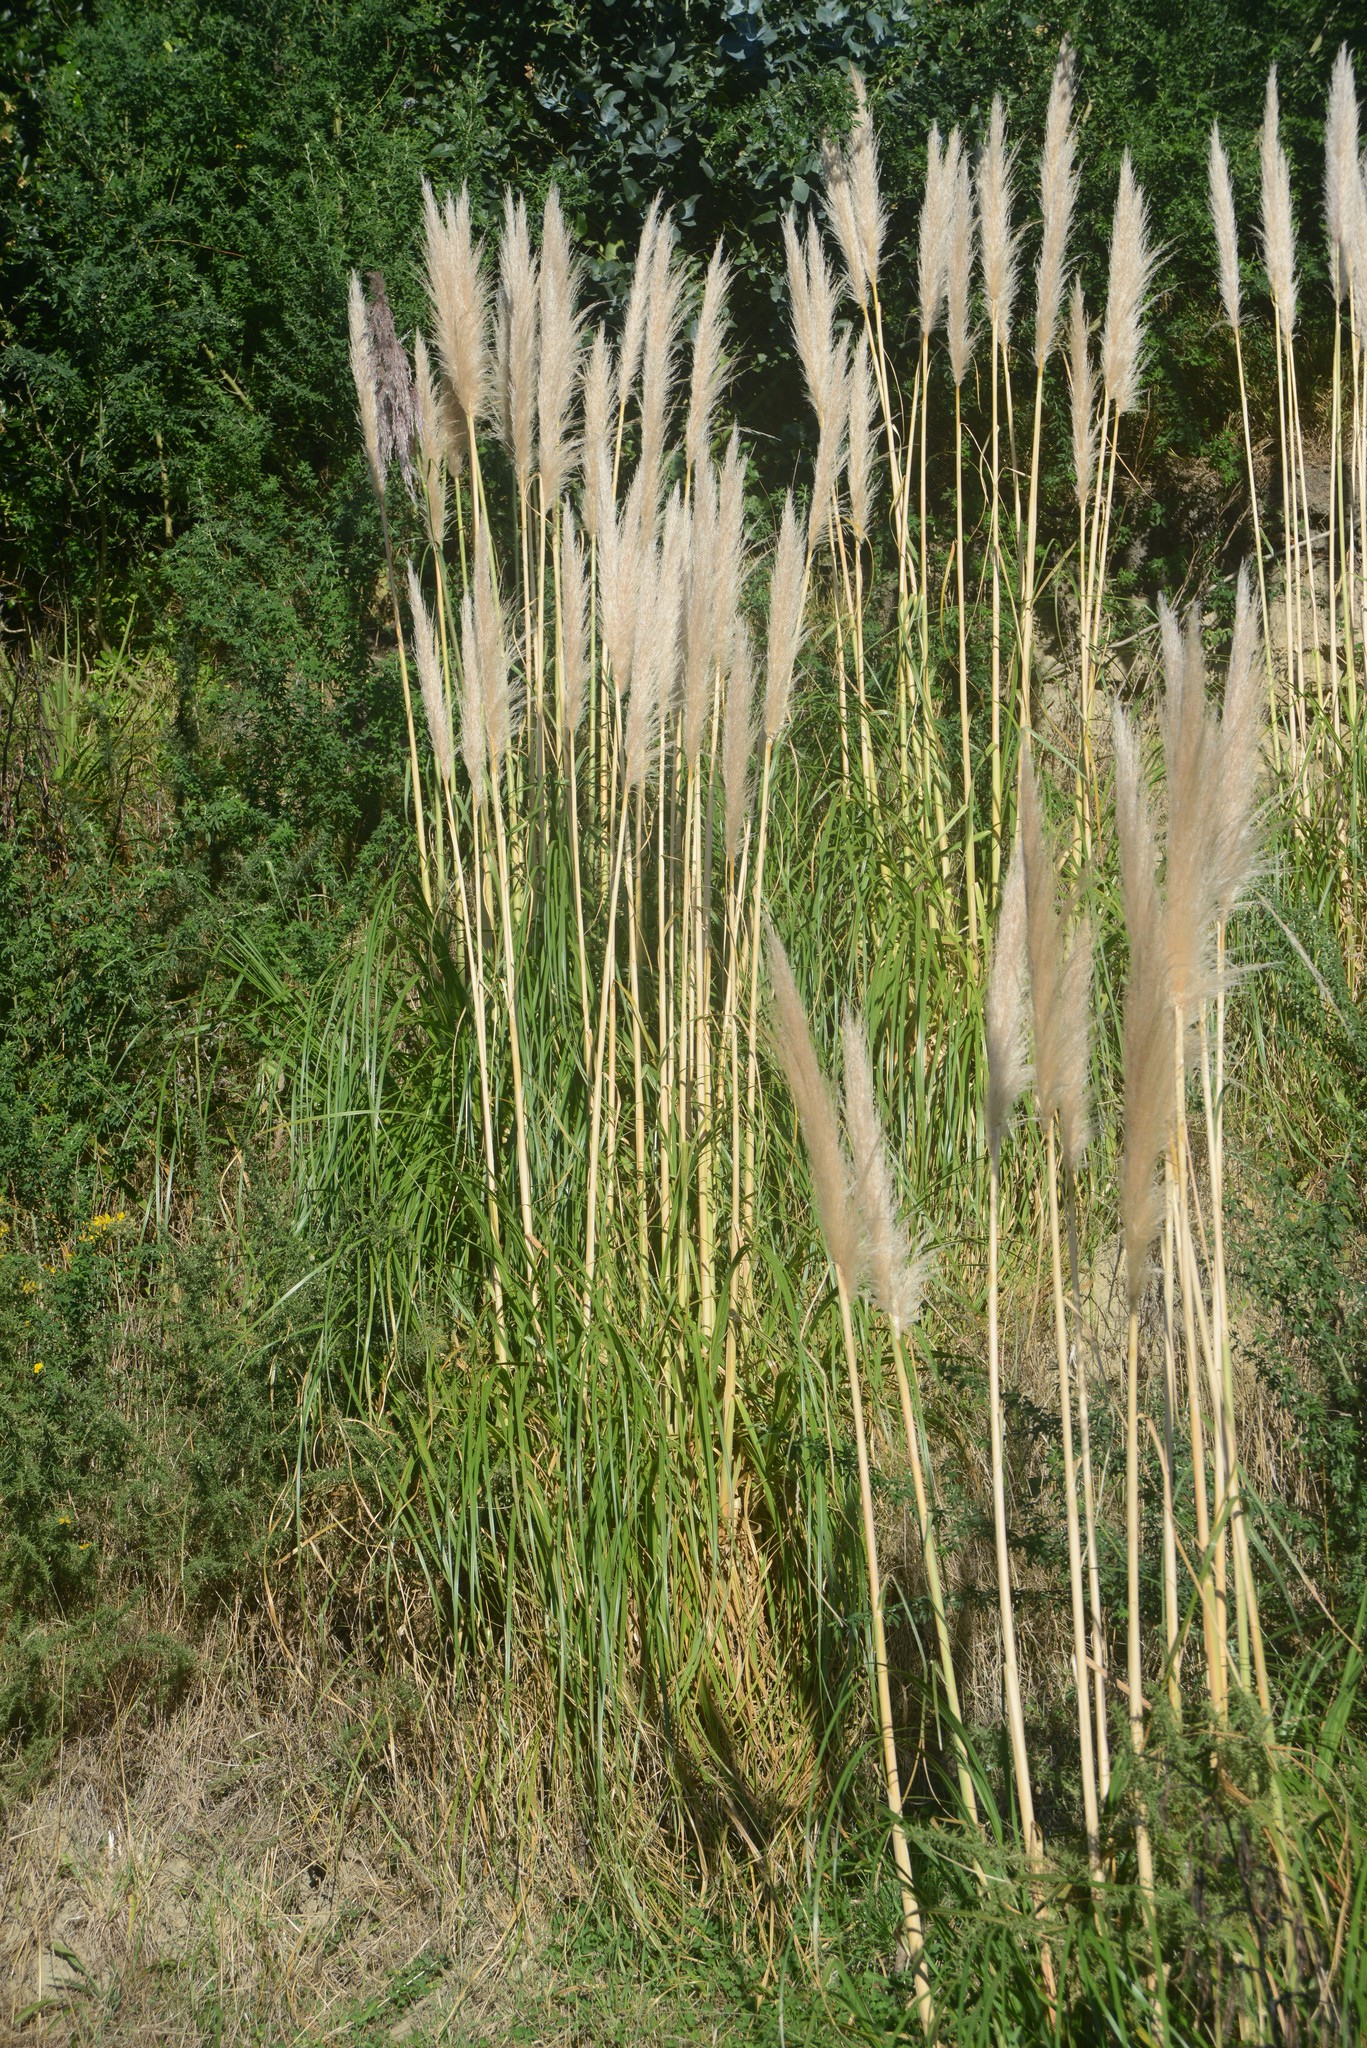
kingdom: Plantae
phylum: Tracheophyta
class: Liliopsida
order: Poales
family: Poaceae
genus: Cortaderia
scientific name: Cortaderia selloana
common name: Uruguayan pampas grass
